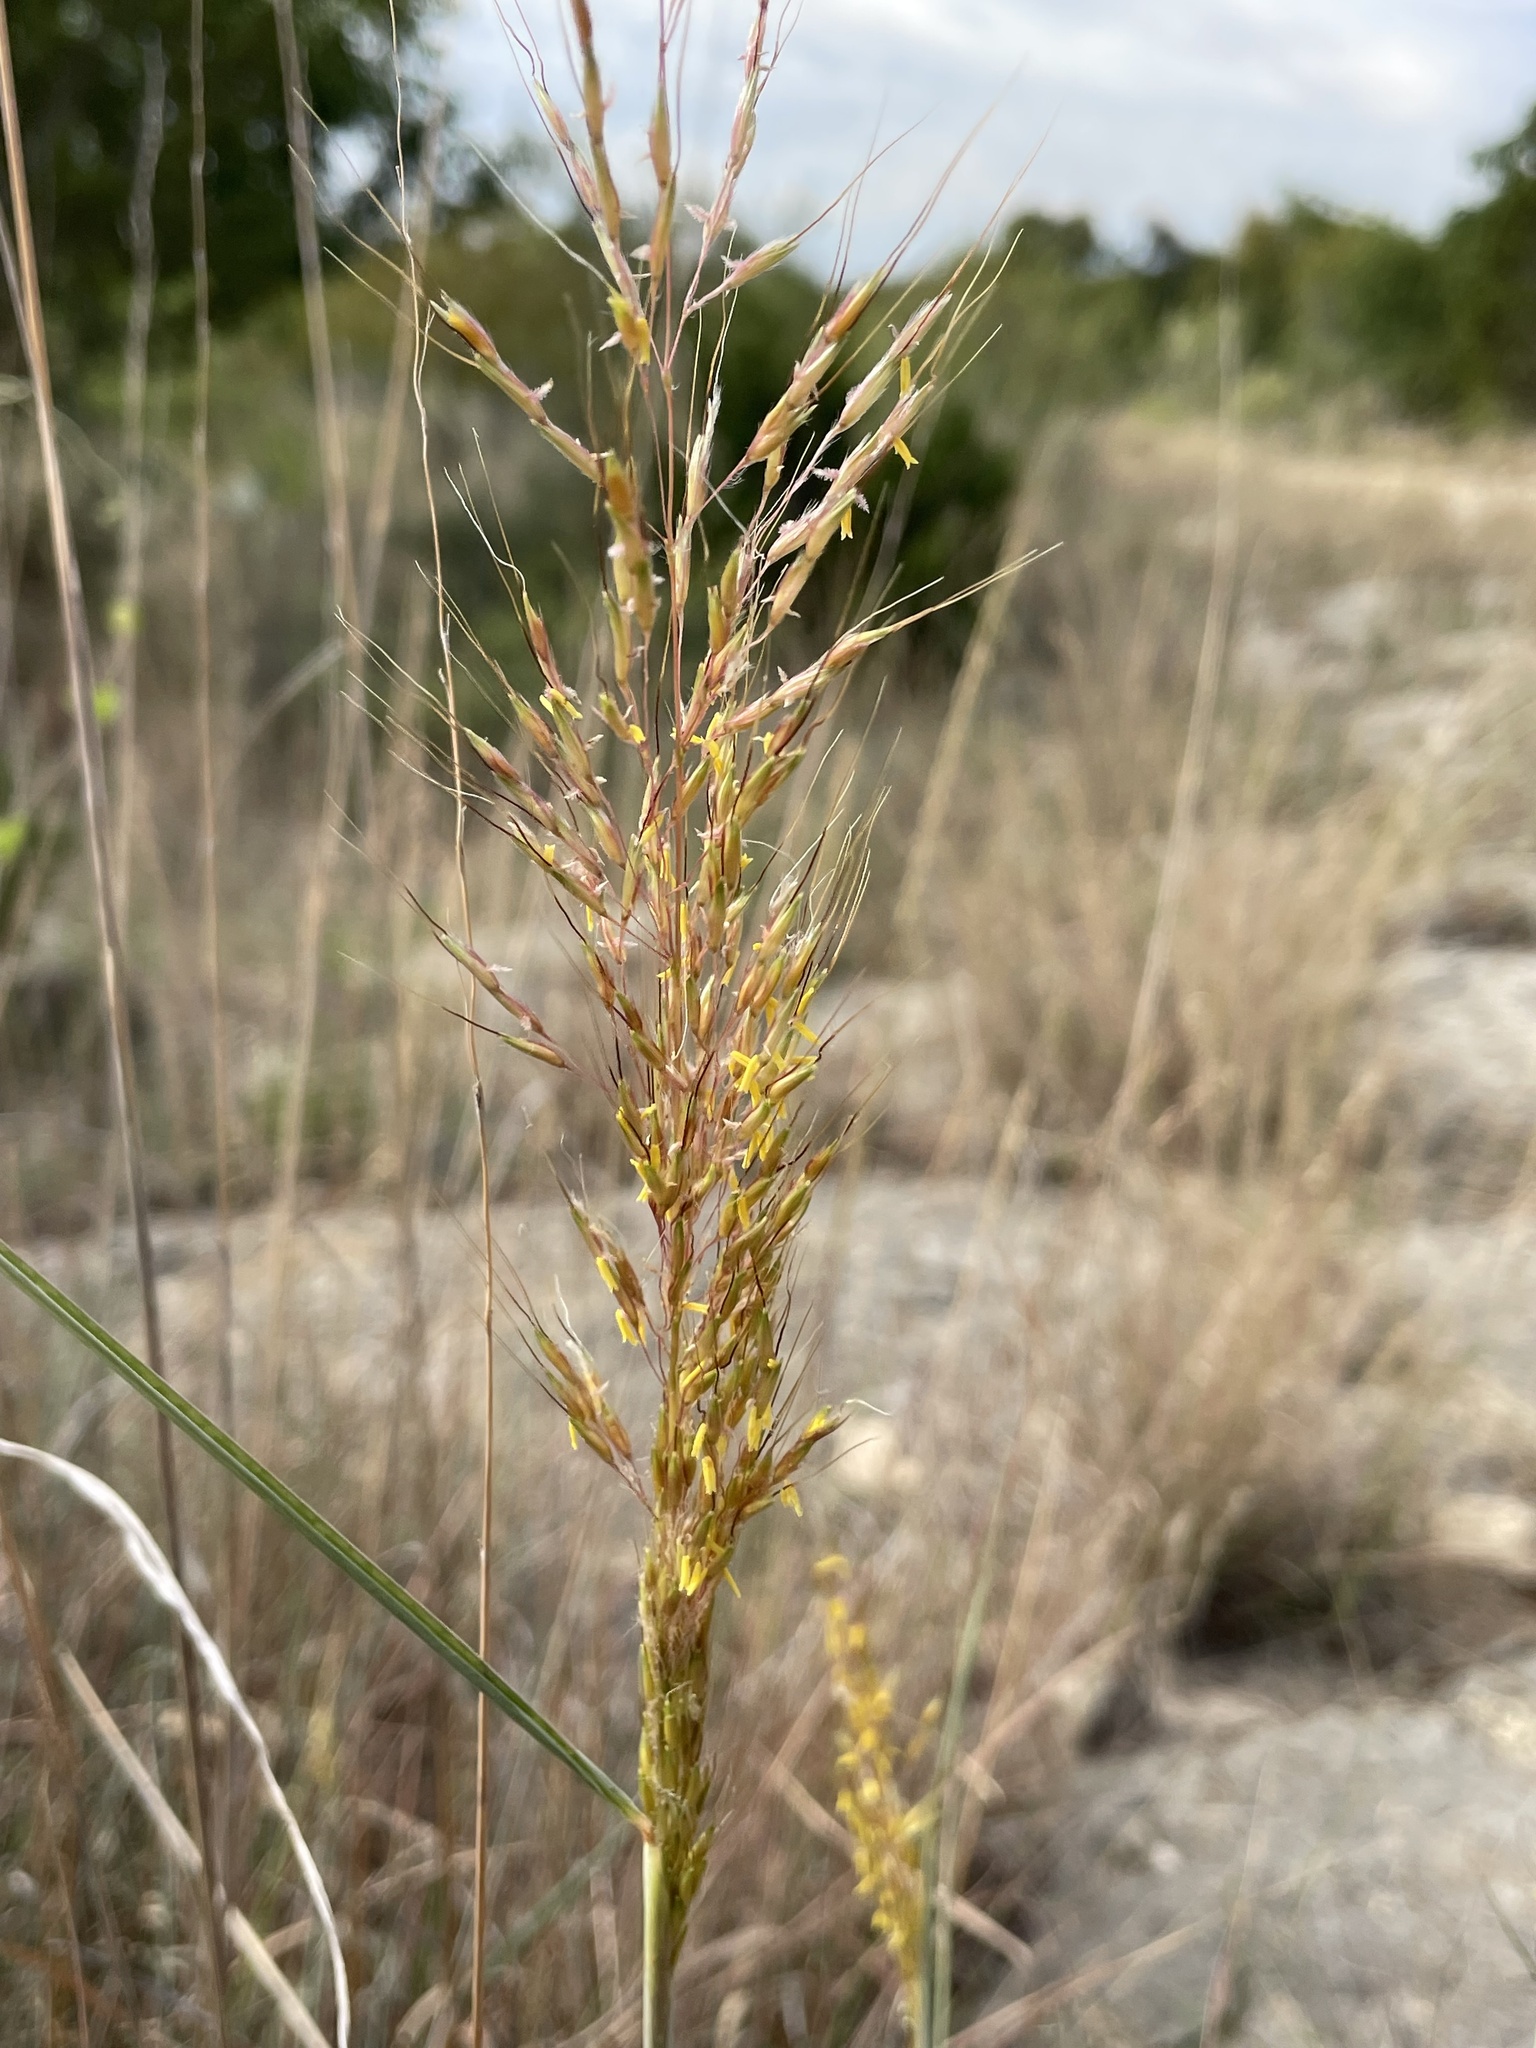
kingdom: Plantae
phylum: Tracheophyta
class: Liliopsida
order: Poales
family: Poaceae
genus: Sorghastrum
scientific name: Sorghastrum nutans
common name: Indian grass
